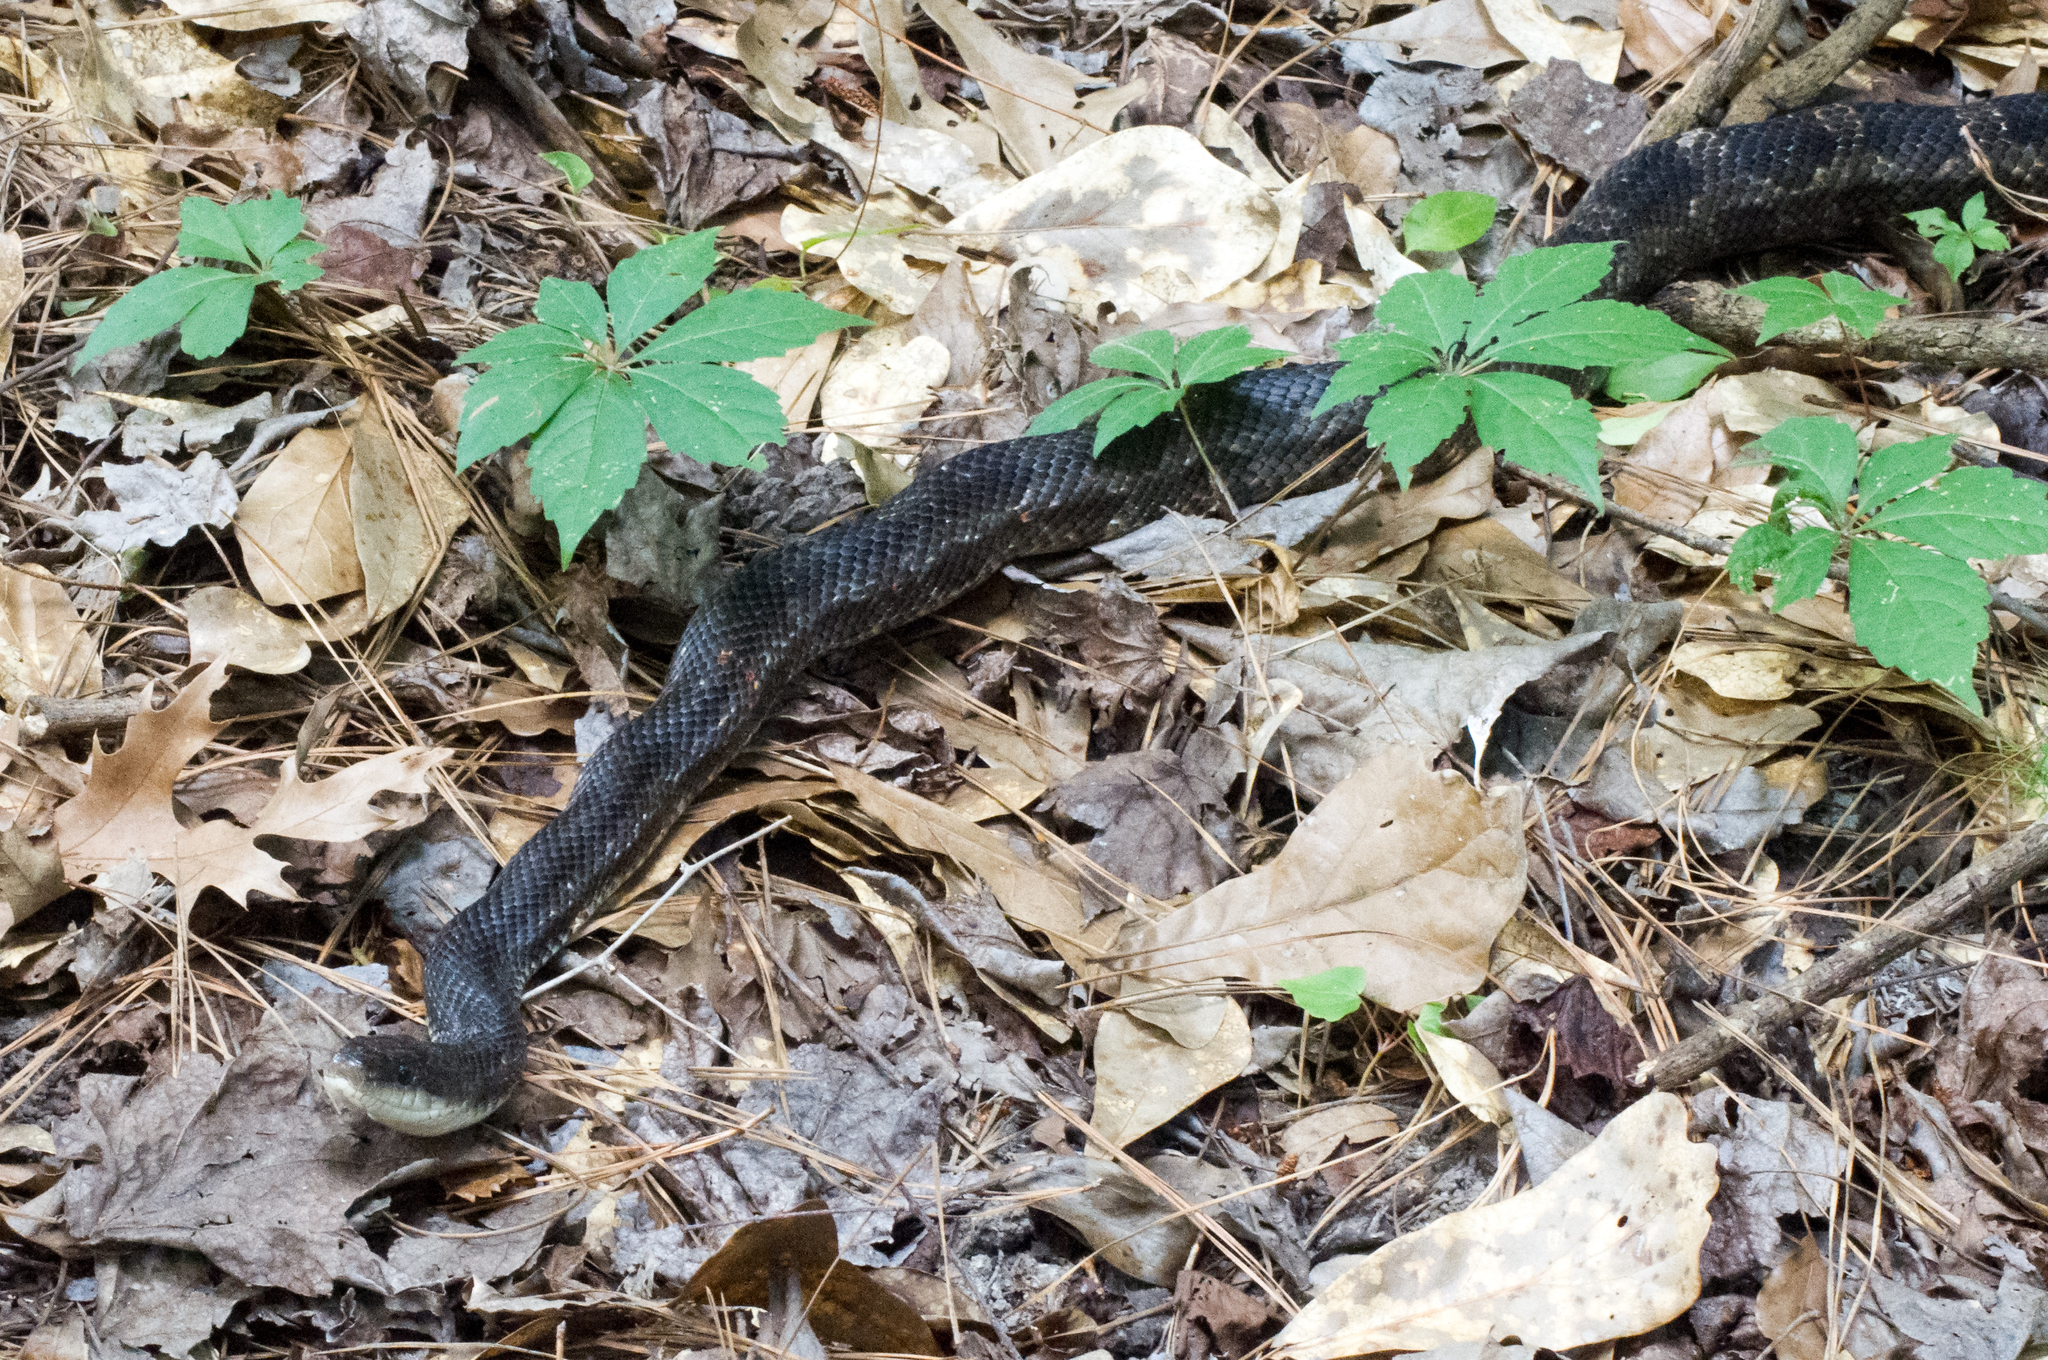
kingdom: Animalia
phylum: Chordata
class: Squamata
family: Colubridae
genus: Pantherophis
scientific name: Pantherophis obsoletus
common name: Black rat snake
